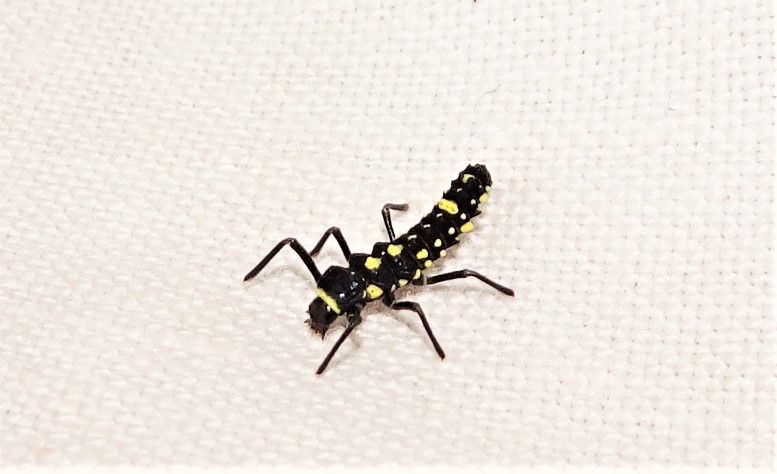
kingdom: Animalia
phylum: Arthropoda
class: Insecta
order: Coleoptera
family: Coccinellidae
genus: Coelophora
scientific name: Coelophora inaequalis
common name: Common australian lady beetle
